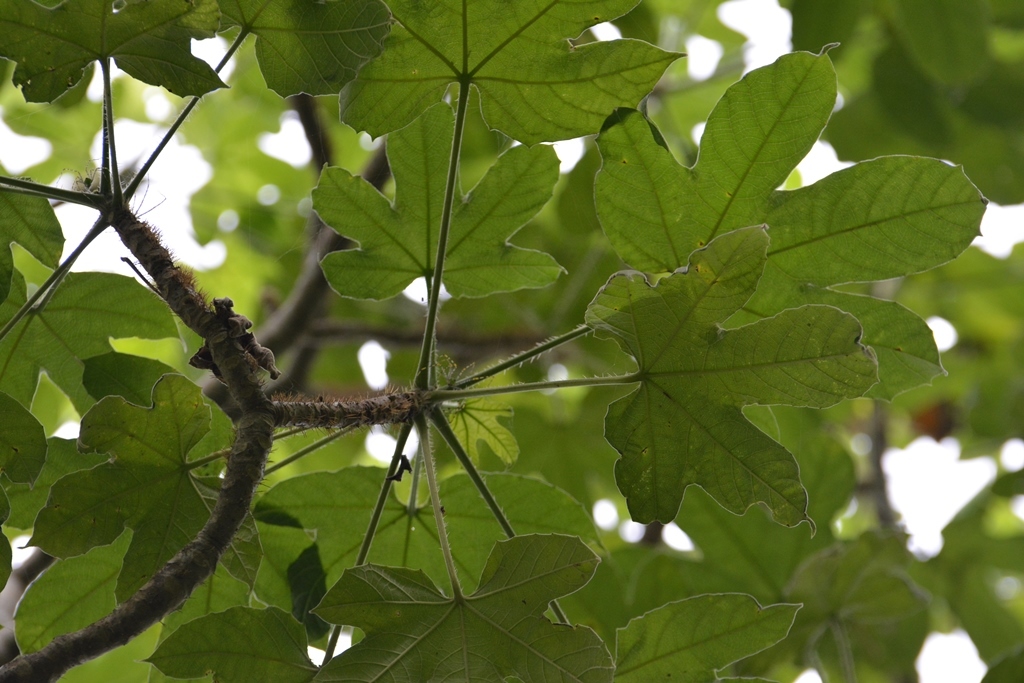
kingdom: Plantae
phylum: Tracheophyta
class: Magnoliopsida
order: Malpighiales
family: Euphorbiaceae
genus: Cnidoscolus
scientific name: Cnidoscolus multilobus
